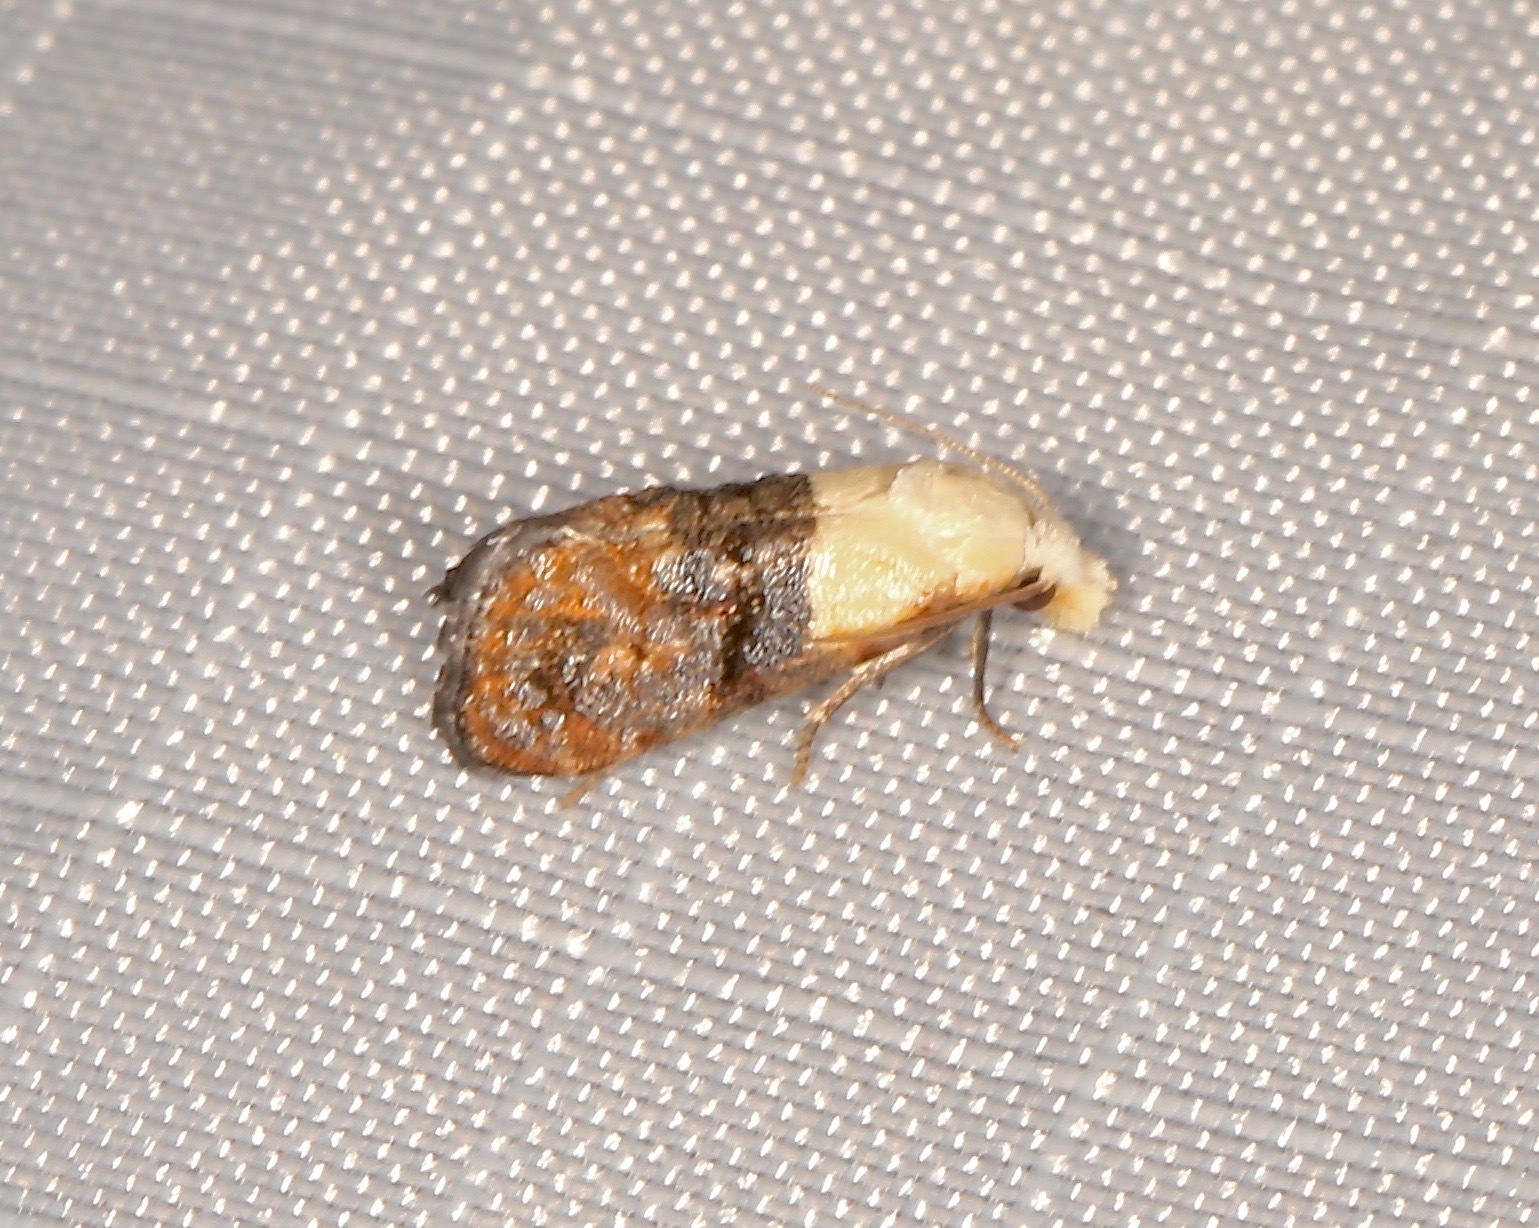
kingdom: Animalia
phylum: Arthropoda
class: Insecta
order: Lepidoptera
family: Tortricidae
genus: Eugnosta
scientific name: Eugnosta erigeronana
